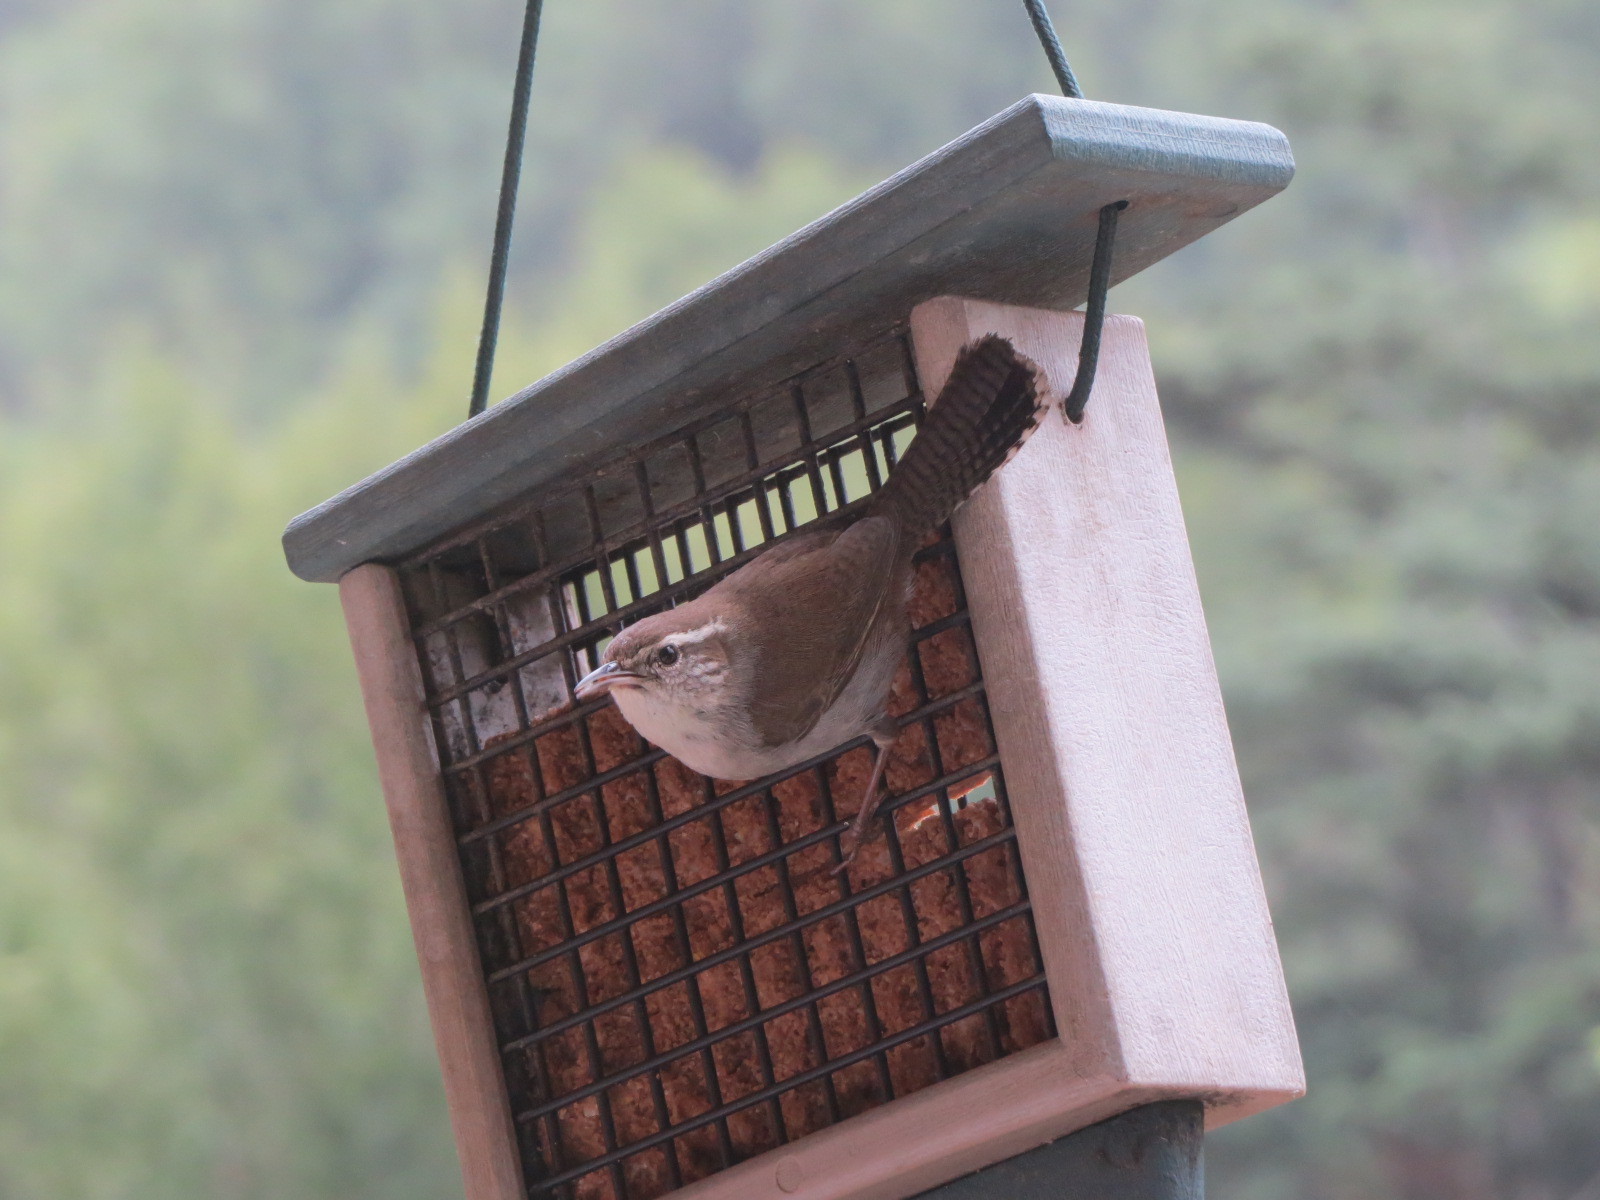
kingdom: Animalia
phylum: Chordata
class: Aves
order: Passeriformes
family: Troglodytidae
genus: Thryomanes
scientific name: Thryomanes bewickii
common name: Bewick's wren
